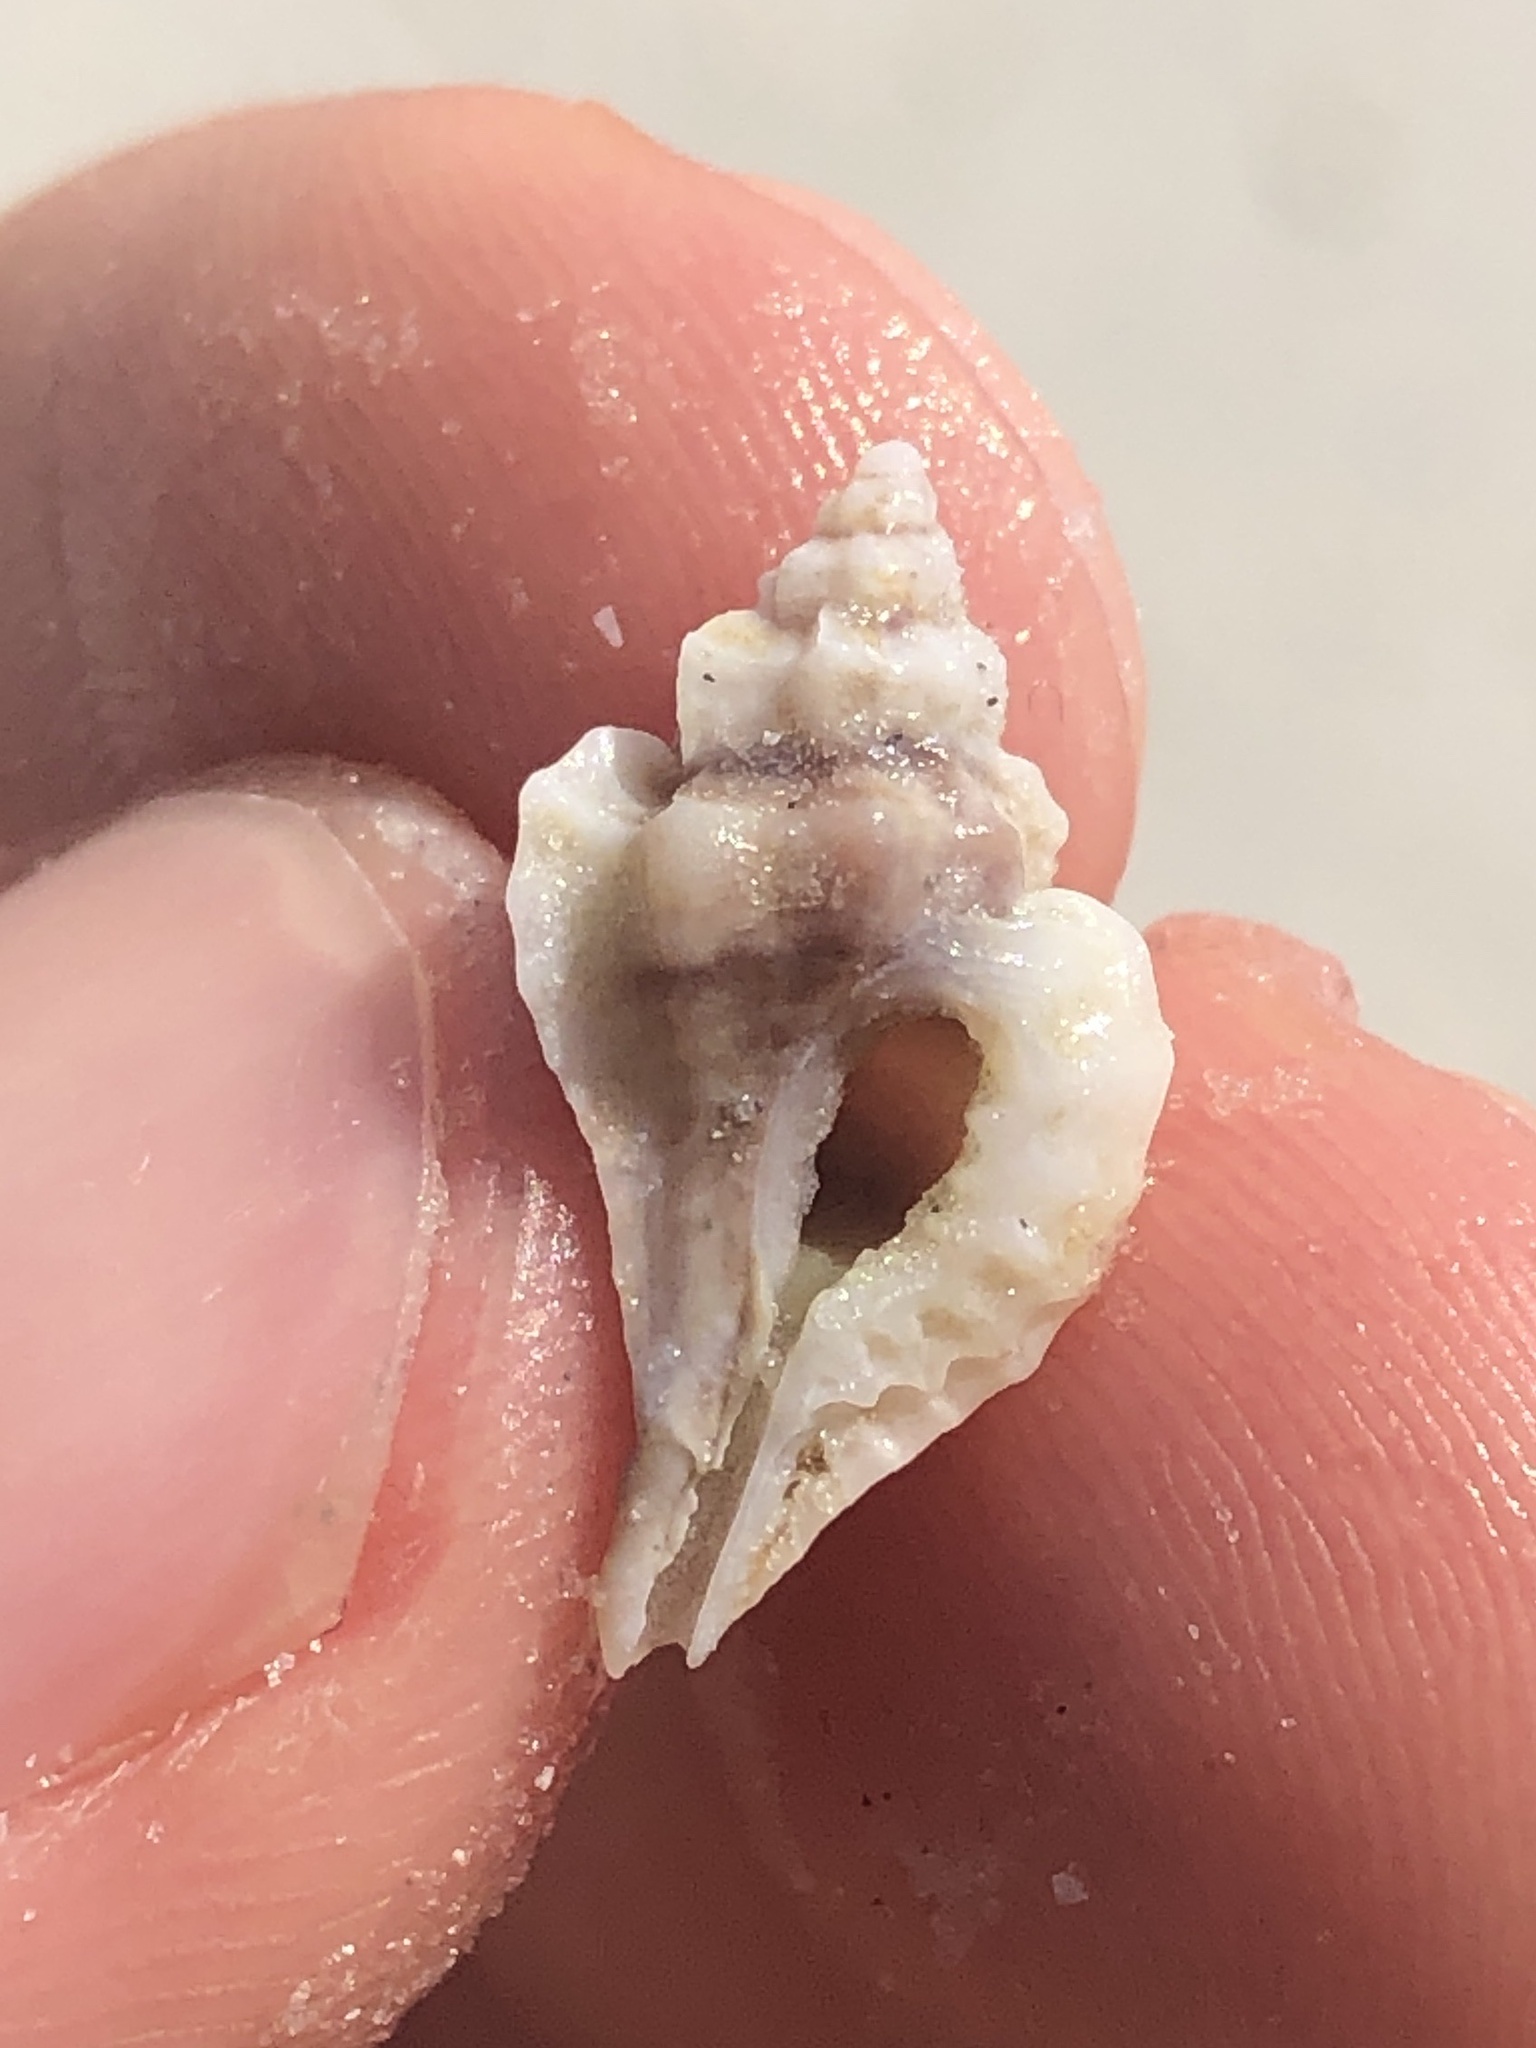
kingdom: Animalia
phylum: Mollusca
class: Gastropoda
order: Neogastropoda
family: Muricidae
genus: Eupleura
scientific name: Eupleura sulcidentata
